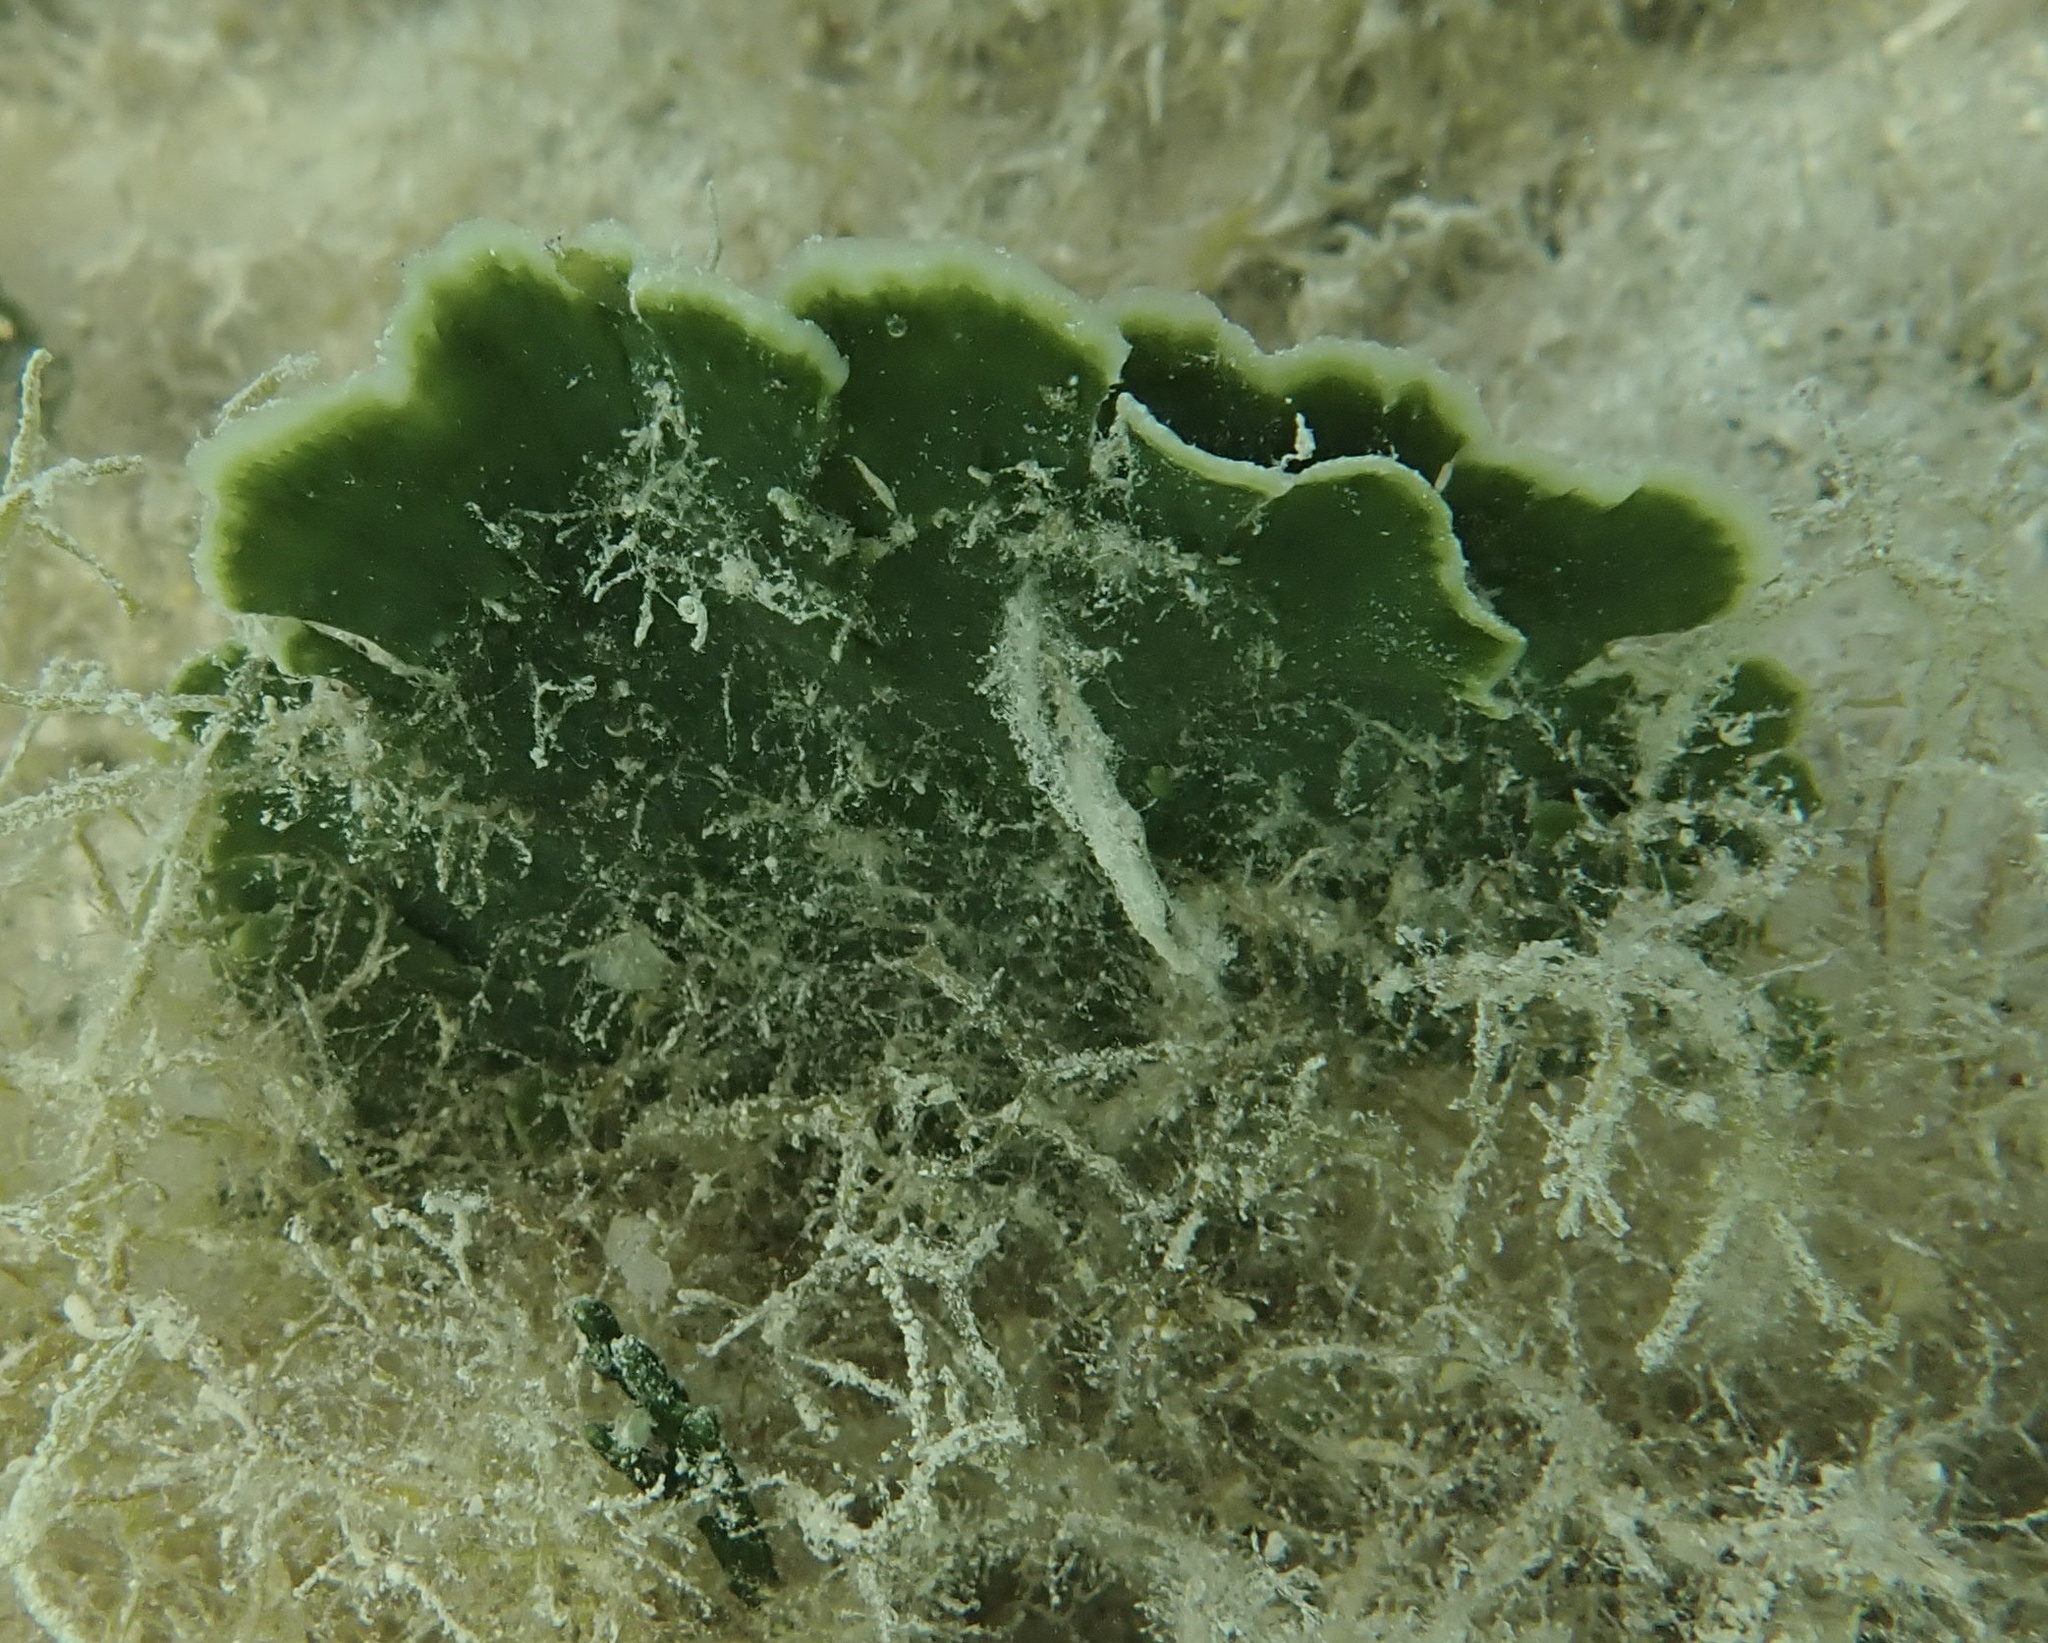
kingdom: Plantae
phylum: Chlorophyta
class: Ulvophyceae
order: Bryopsidales
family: Udoteaceae
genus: Udotea
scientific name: Udotea flabellum
